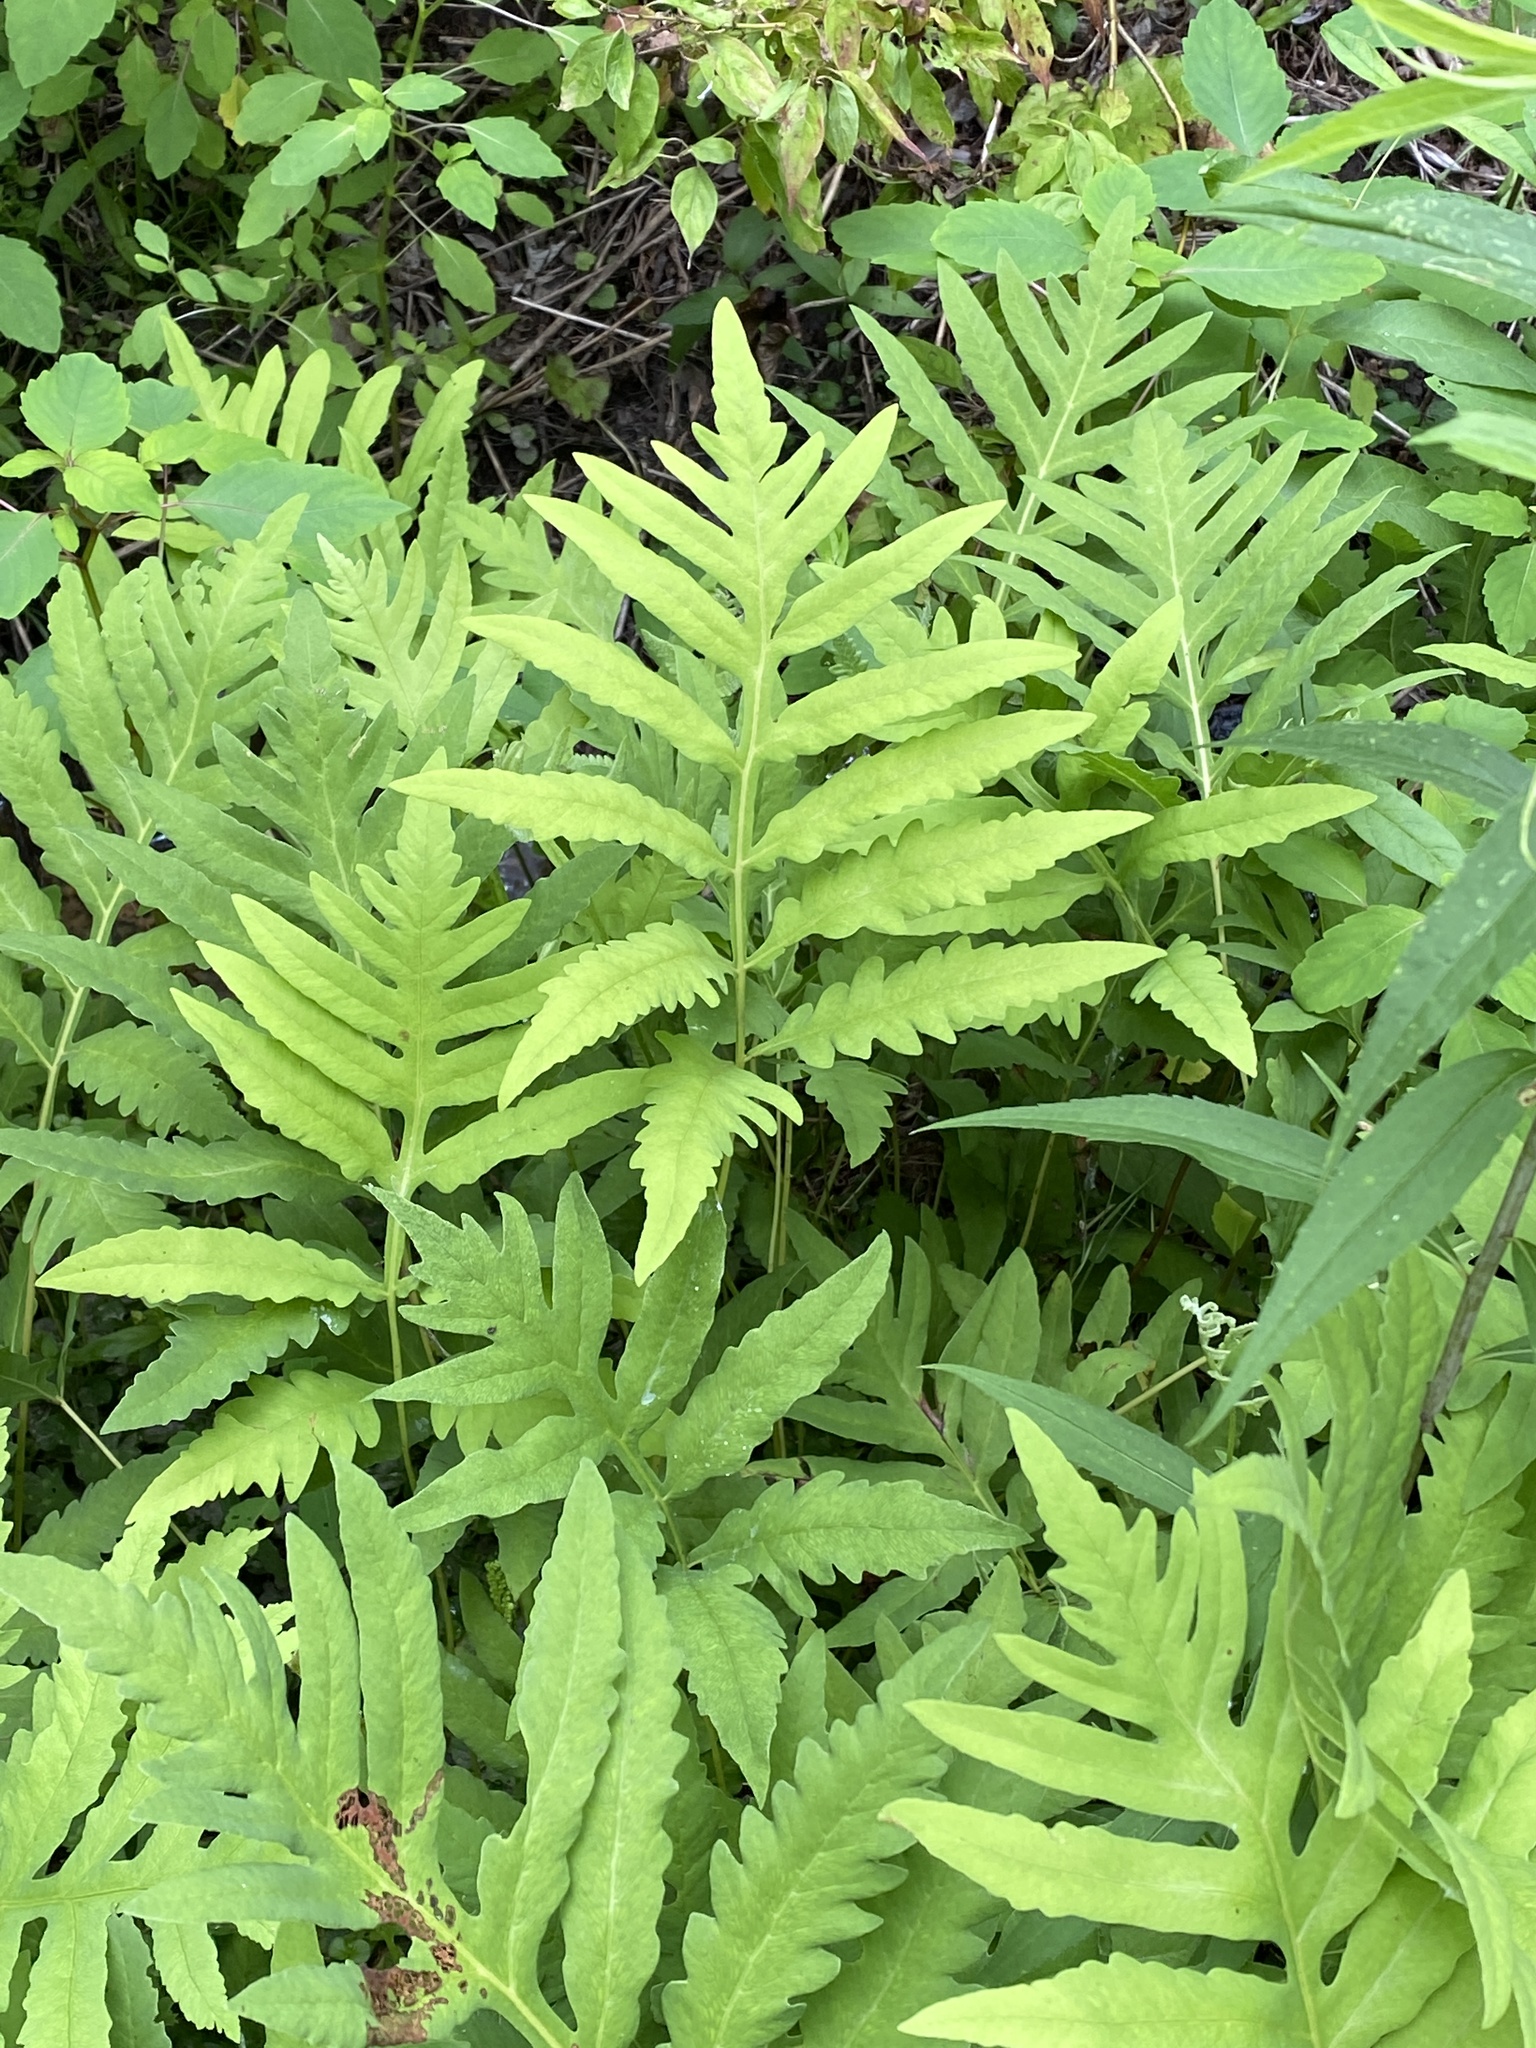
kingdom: Plantae
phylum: Tracheophyta
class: Polypodiopsida
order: Polypodiales
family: Onocleaceae
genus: Onoclea
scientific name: Onoclea sensibilis
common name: Sensitive fern
